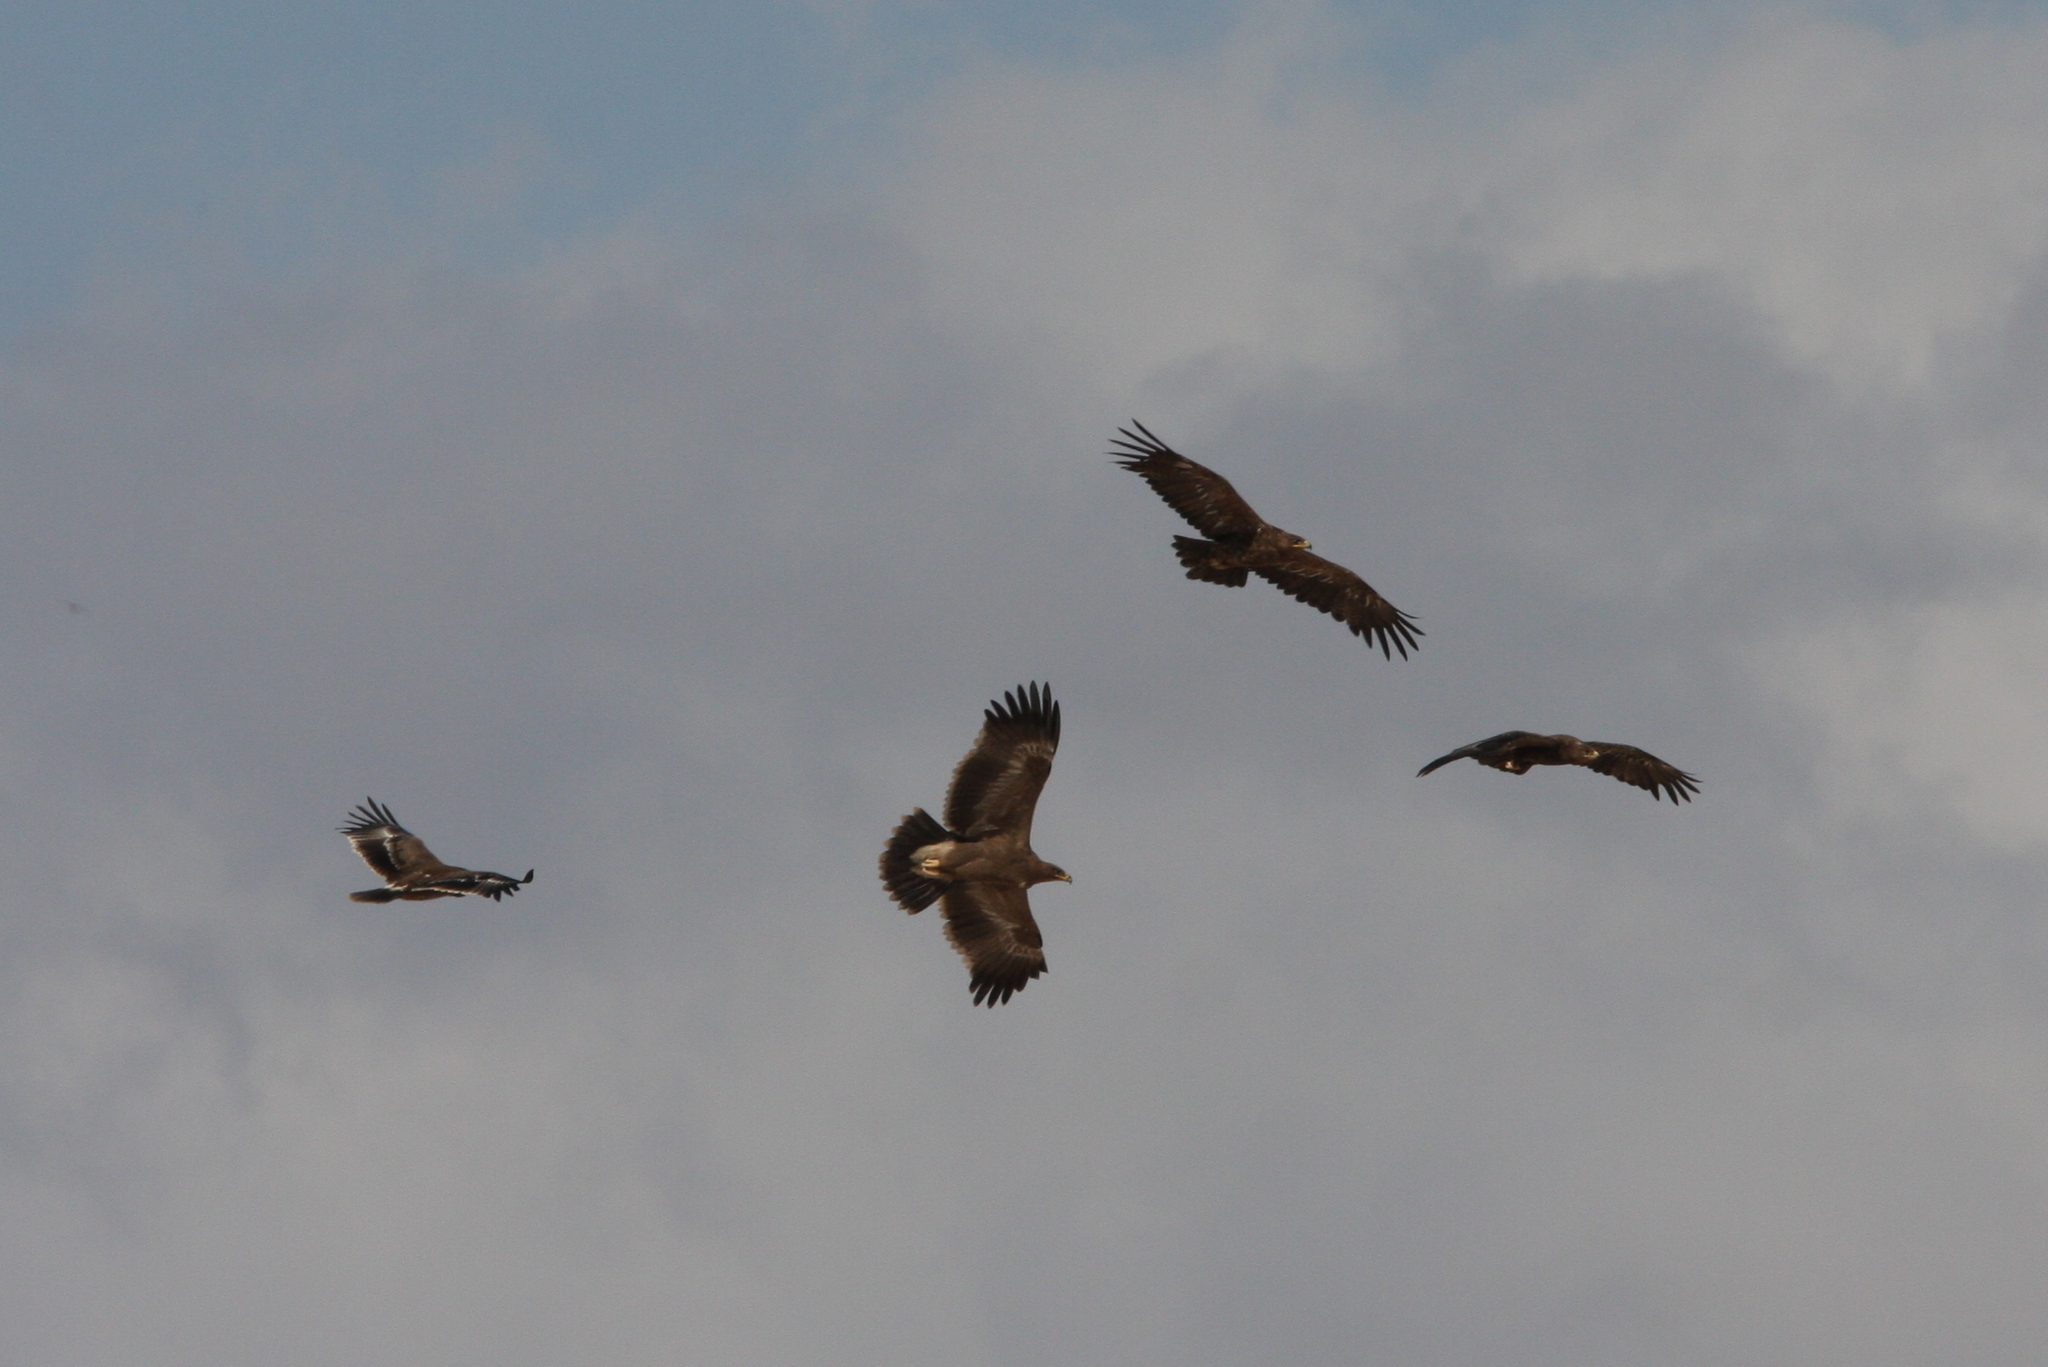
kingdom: Animalia
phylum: Chordata
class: Aves
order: Accipitriformes
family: Accipitridae
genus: Aquila
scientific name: Aquila nipalensis
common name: Steppe eagle
